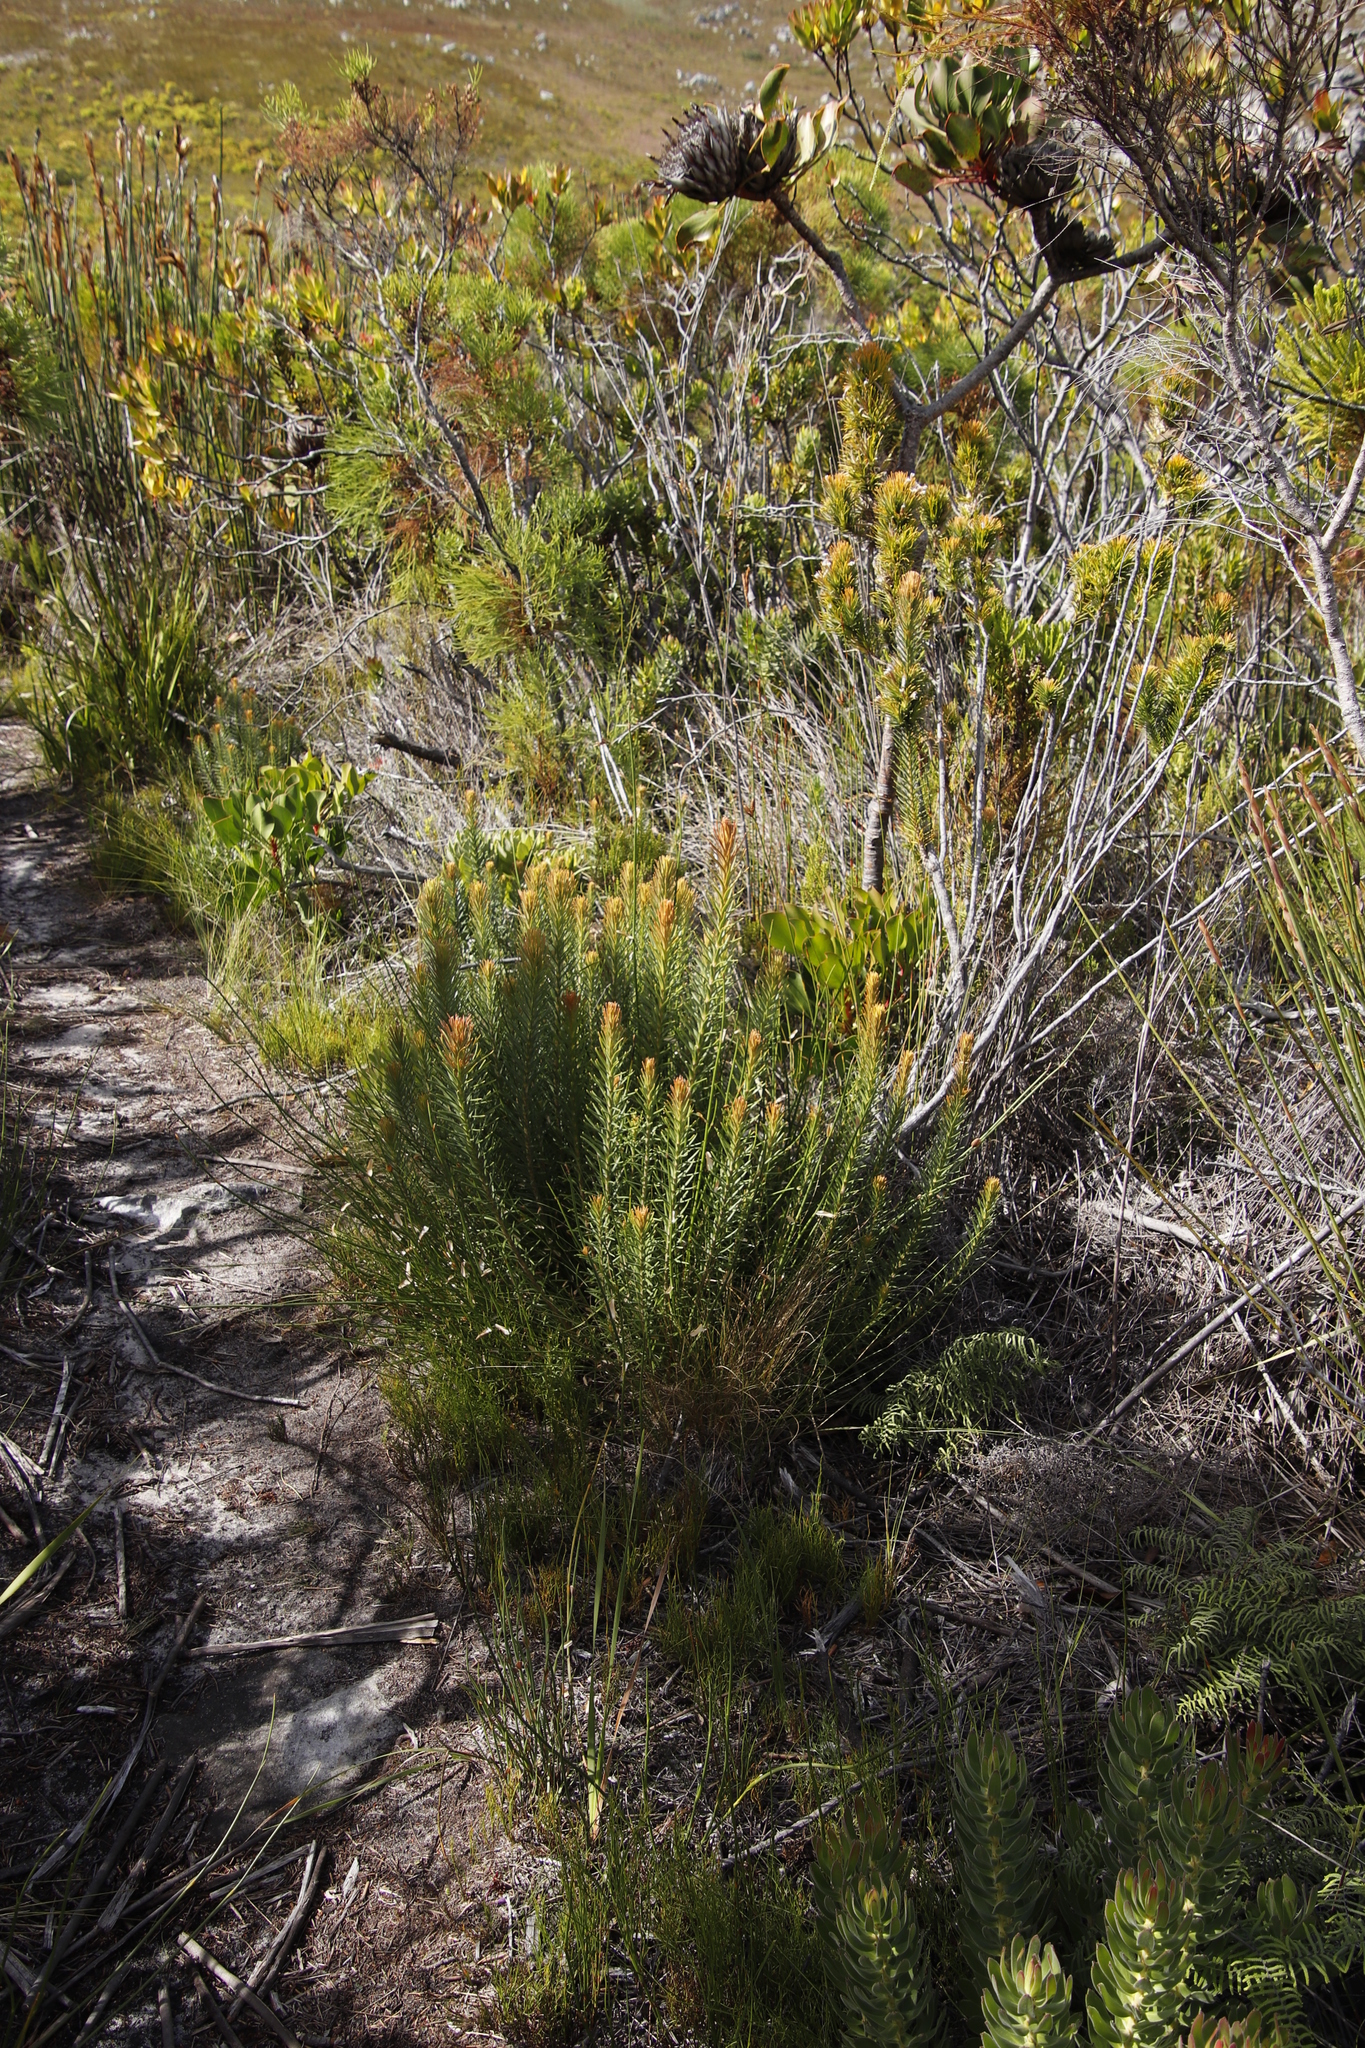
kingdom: Plantae
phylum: Tracheophyta
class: Magnoliopsida
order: Lamiales
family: Stilbaceae
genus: Retzia
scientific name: Retzia capensis
